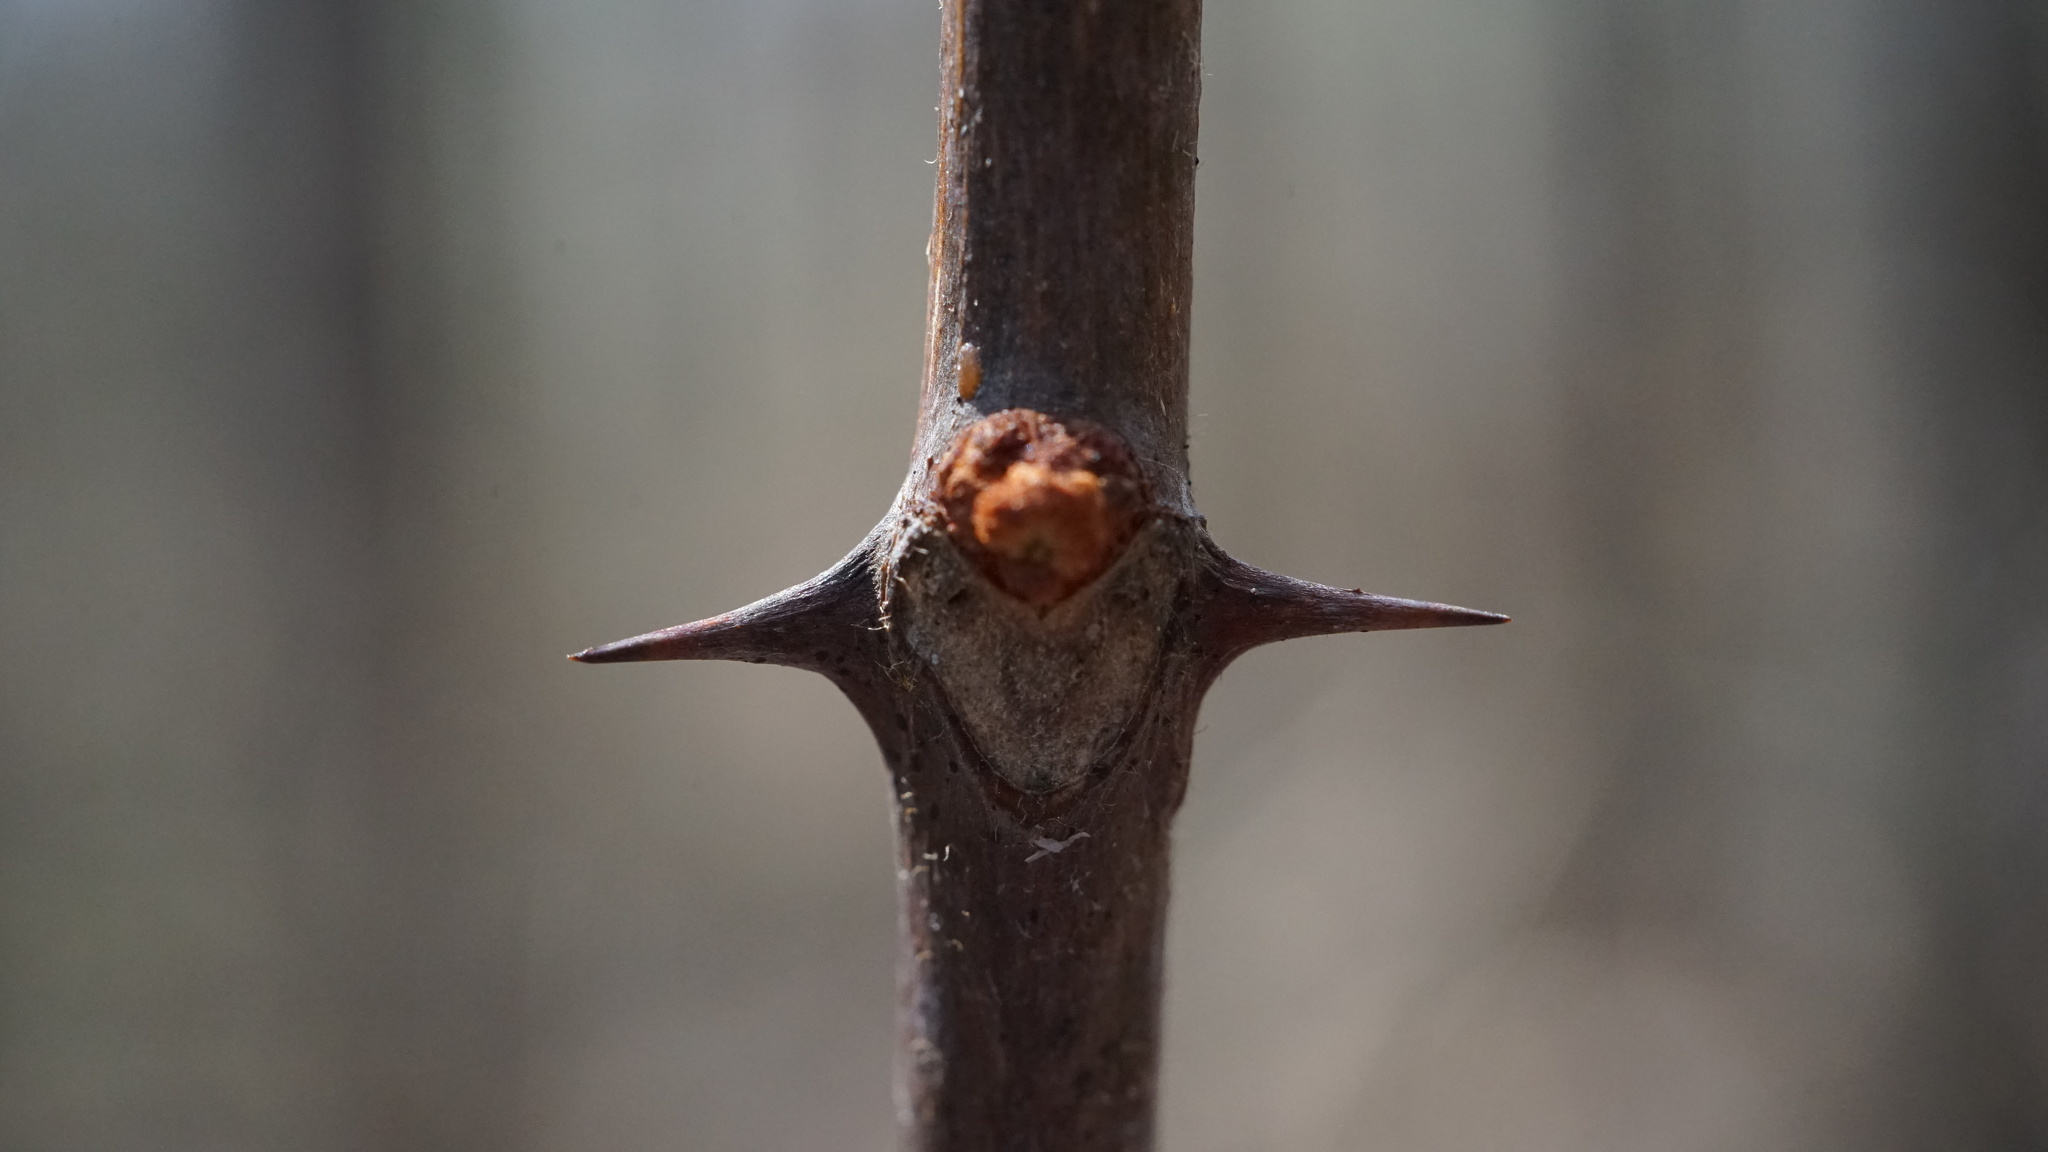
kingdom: Plantae
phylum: Tracheophyta
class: Magnoliopsida
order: Sapindales
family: Rutaceae
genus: Zanthoxylum
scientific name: Zanthoxylum americanum
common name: Northern prickly-ash
